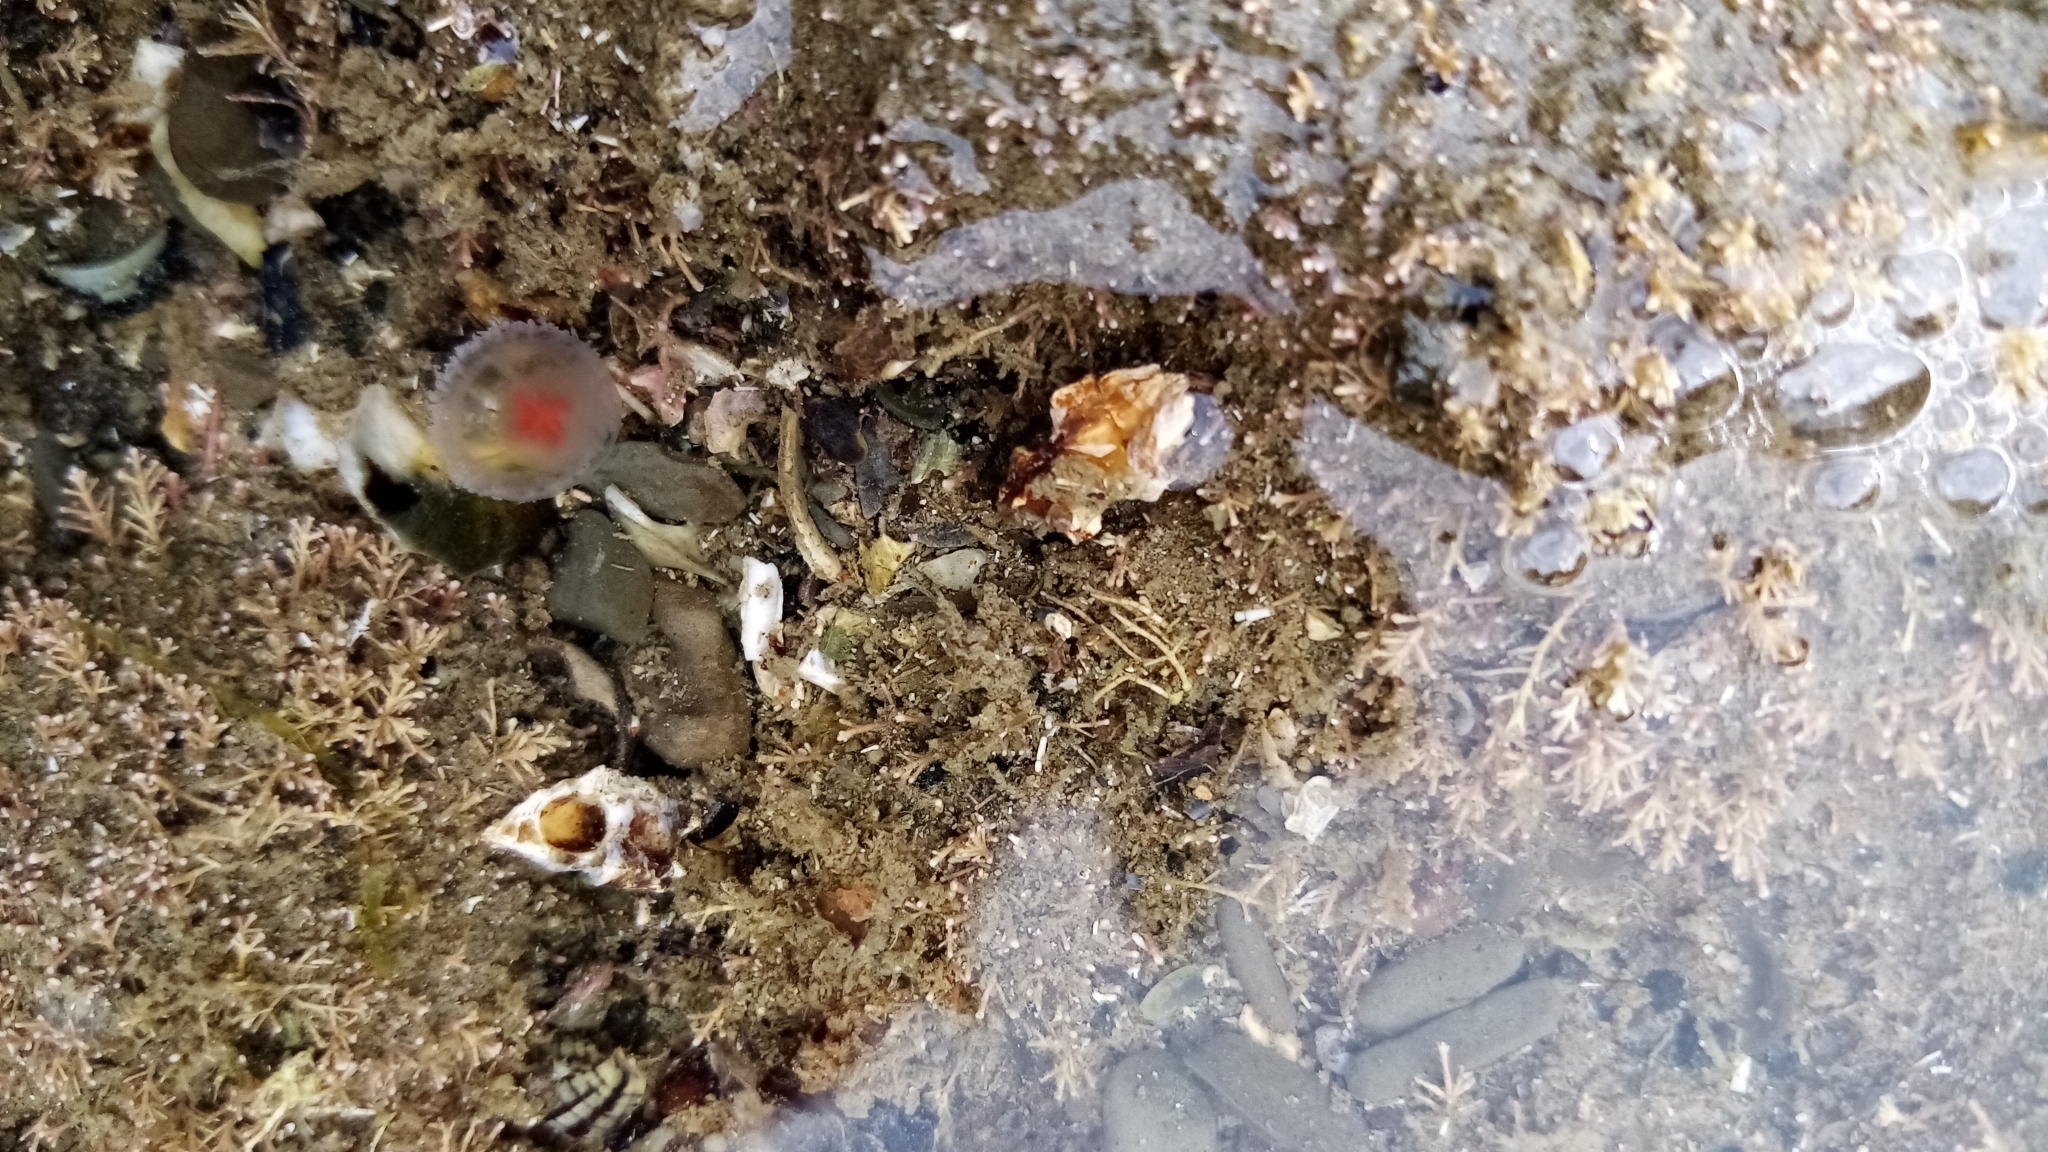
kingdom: Animalia
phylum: Cnidaria
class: Hydrozoa
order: Anthoathecata
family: Oceaniidae
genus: Turritopsis
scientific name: Turritopsis rubra
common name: Crimson jelly
